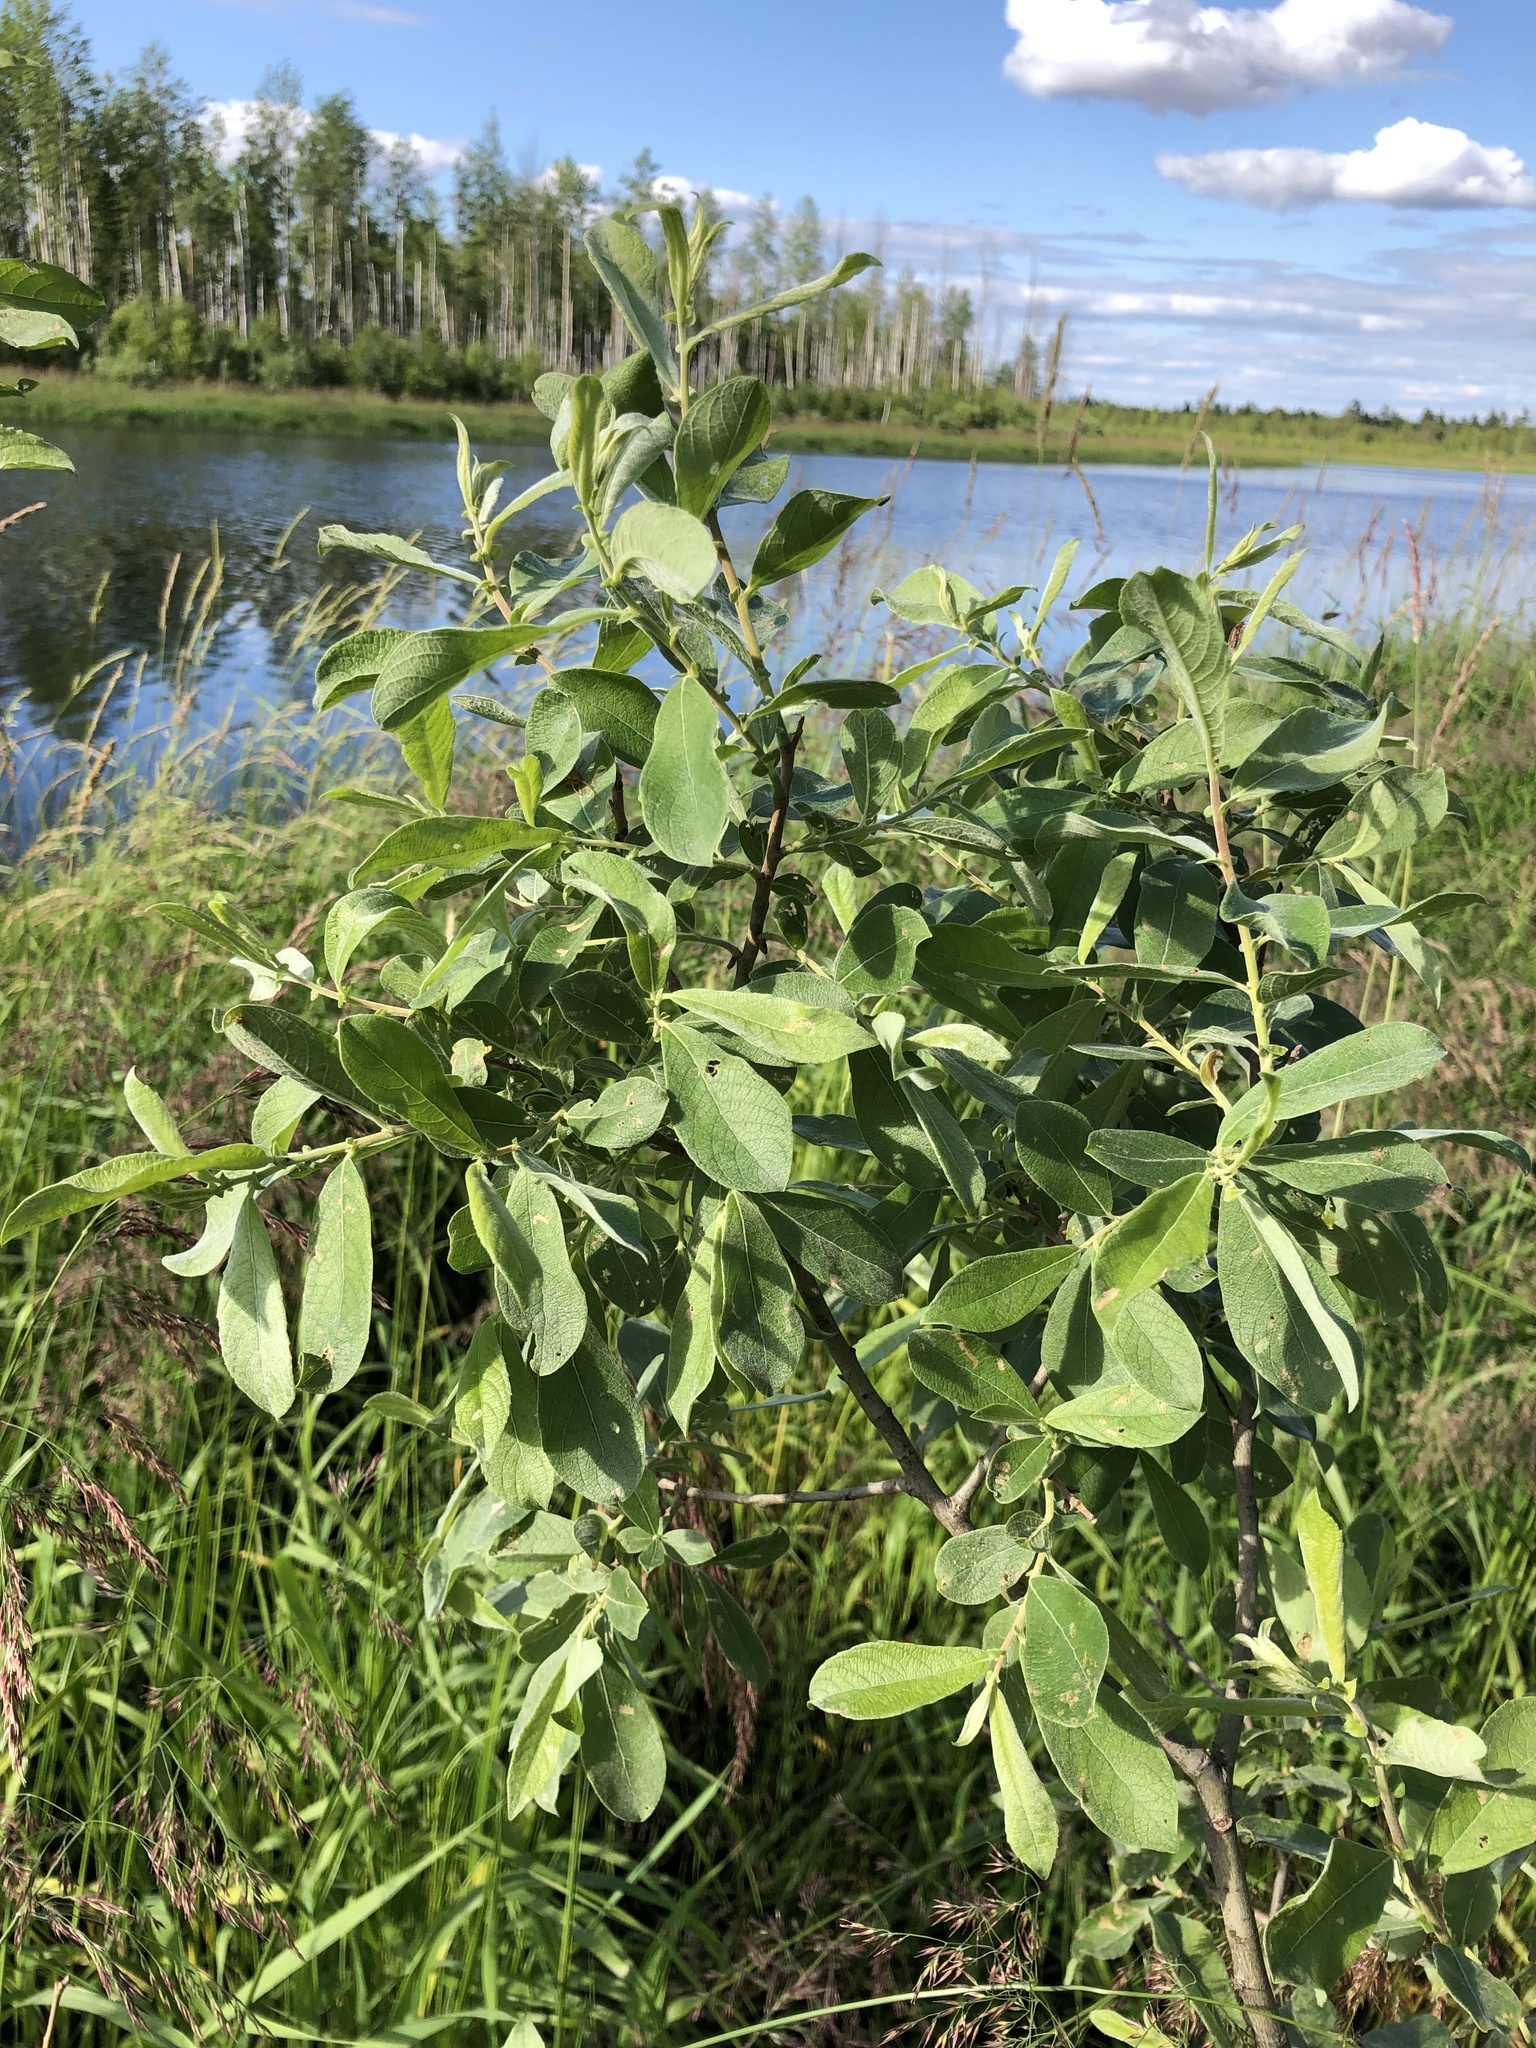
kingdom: Plantae
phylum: Tracheophyta
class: Magnoliopsida
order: Malpighiales
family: Salicaceae
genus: Salix
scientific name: Salix cinerea
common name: Common sallow
